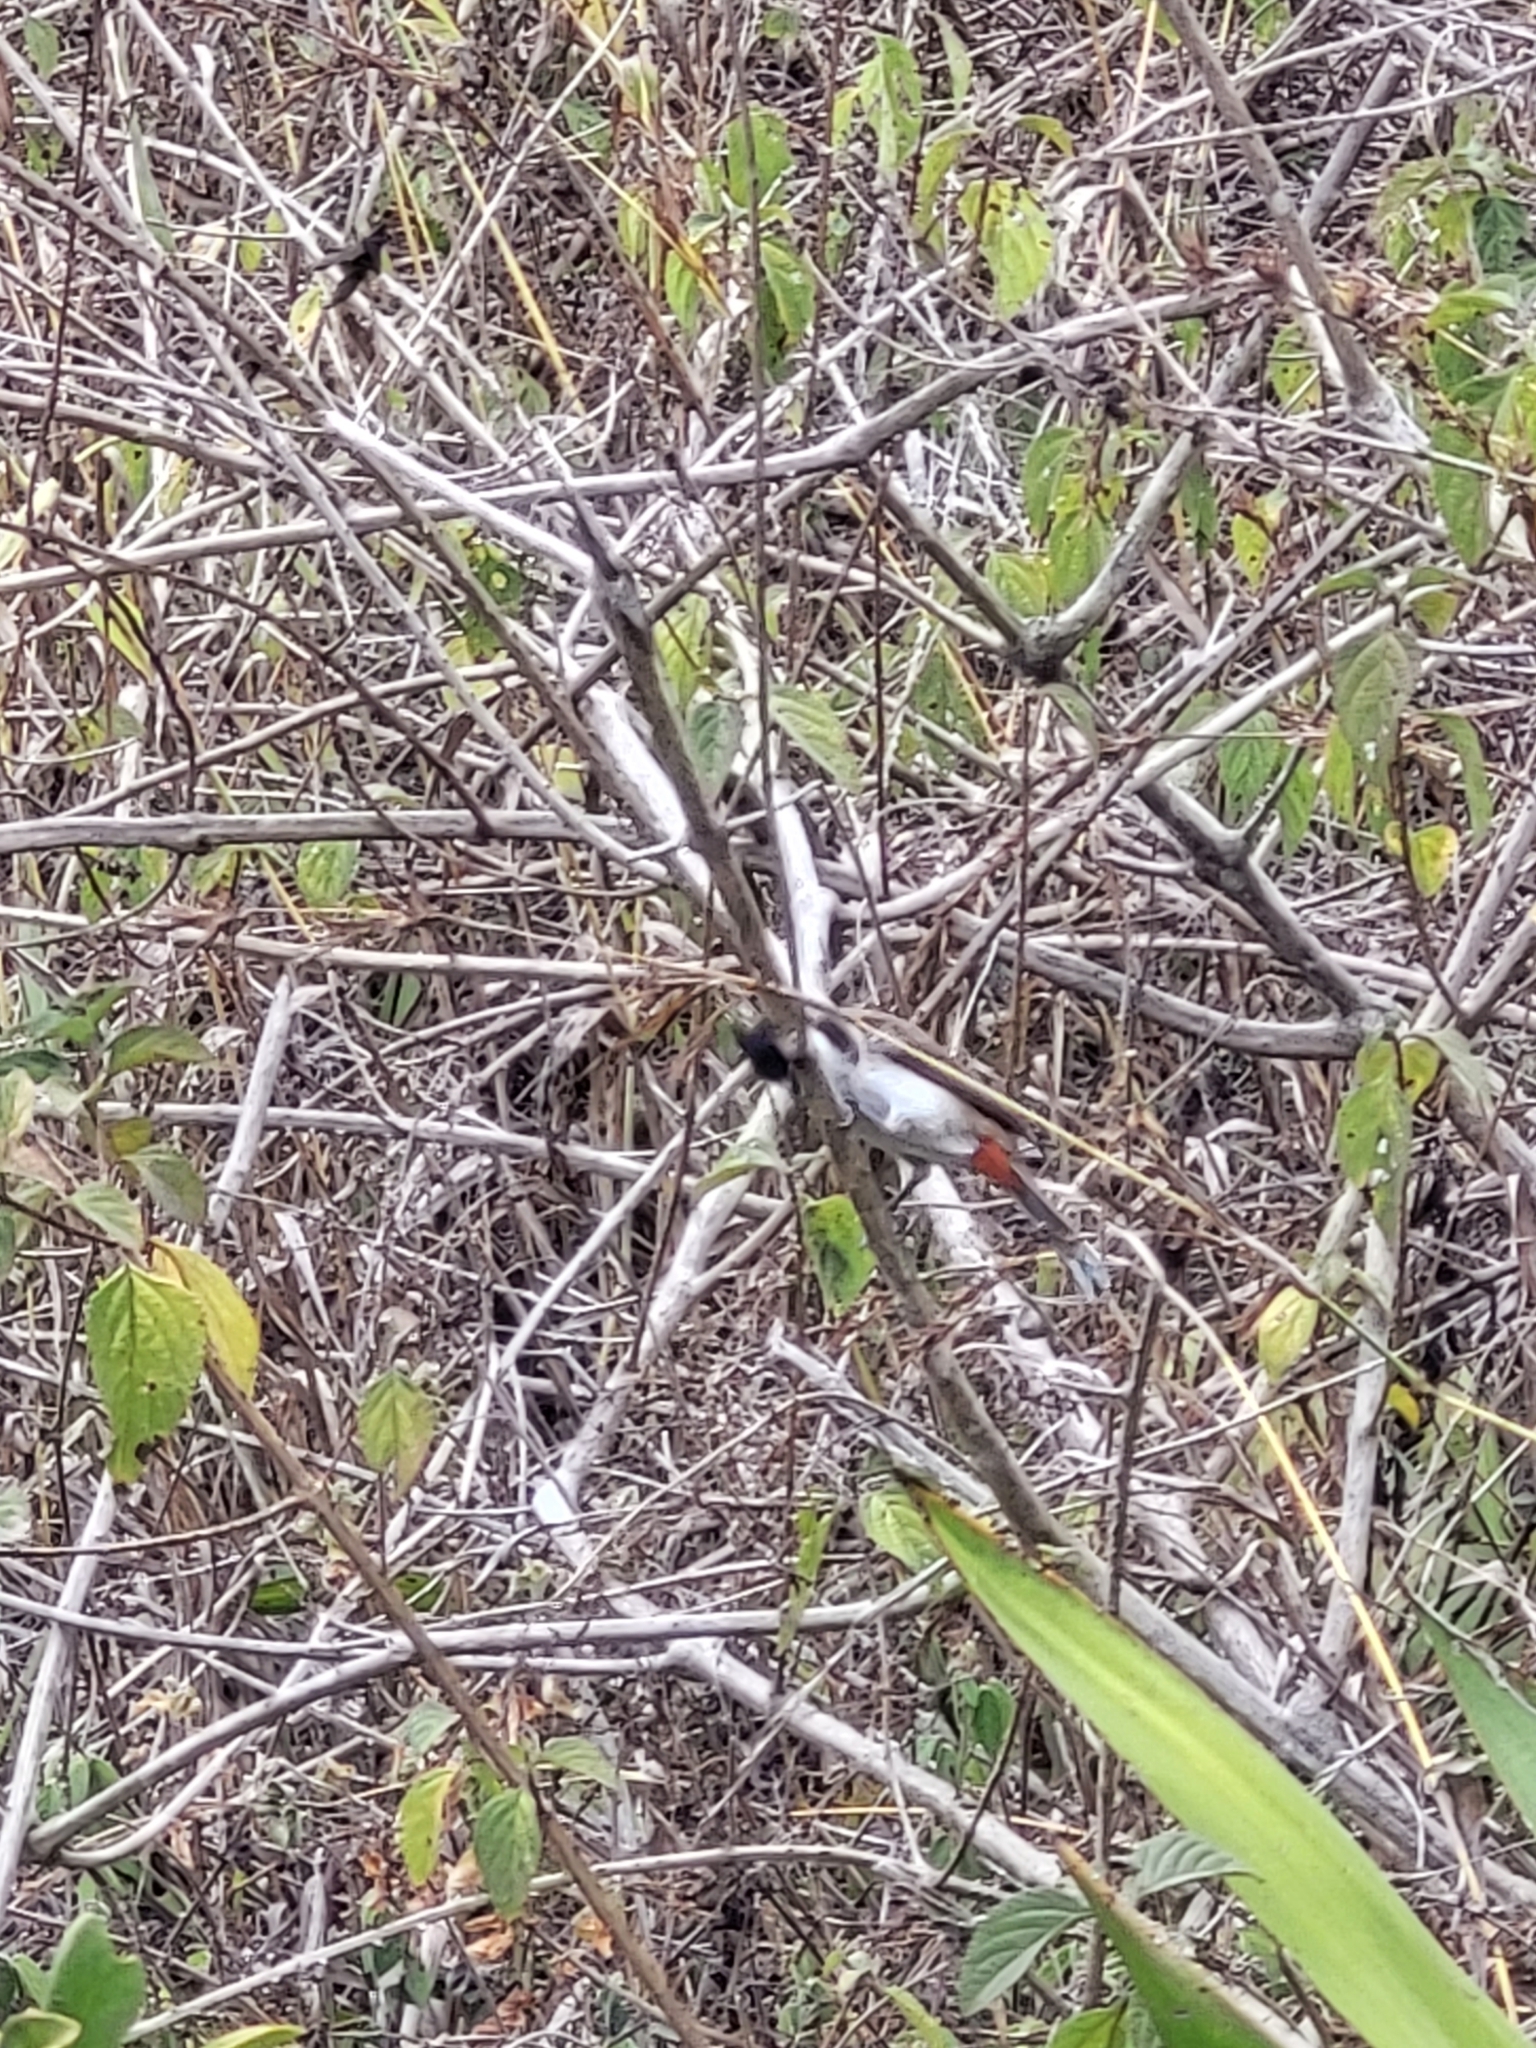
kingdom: Animalia
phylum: Chordata
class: Aves
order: Passeriformes
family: Pycnonotidae
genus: Pycnonotus
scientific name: Pycnonotus jocosus
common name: Red-whiskered bulbul
